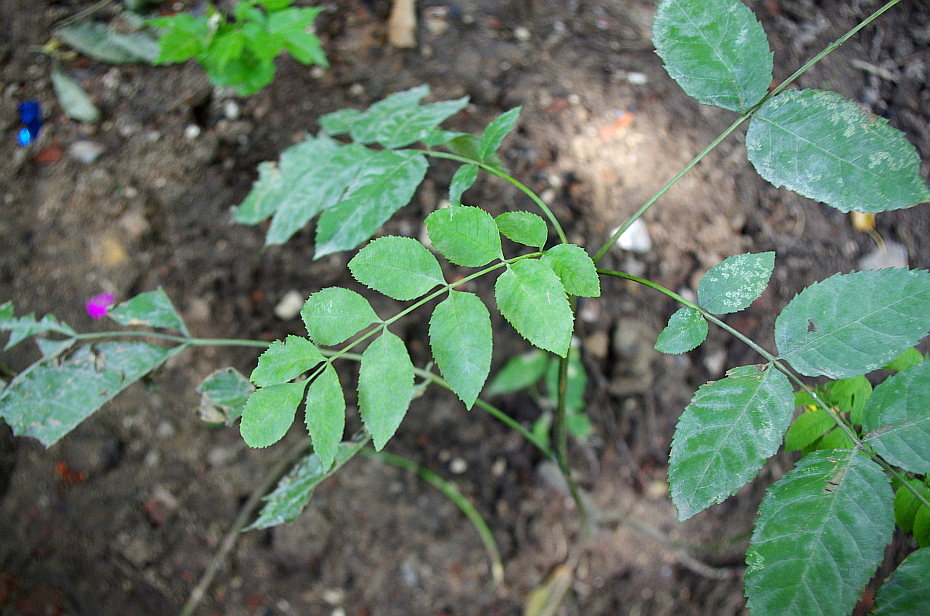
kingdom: Plantae
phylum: Tracheophyta
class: Magnoliopsida
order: Lamiales
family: Oleaceae
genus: Fraxinus
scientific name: Fraxinus pennsylvanica
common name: Green ash
